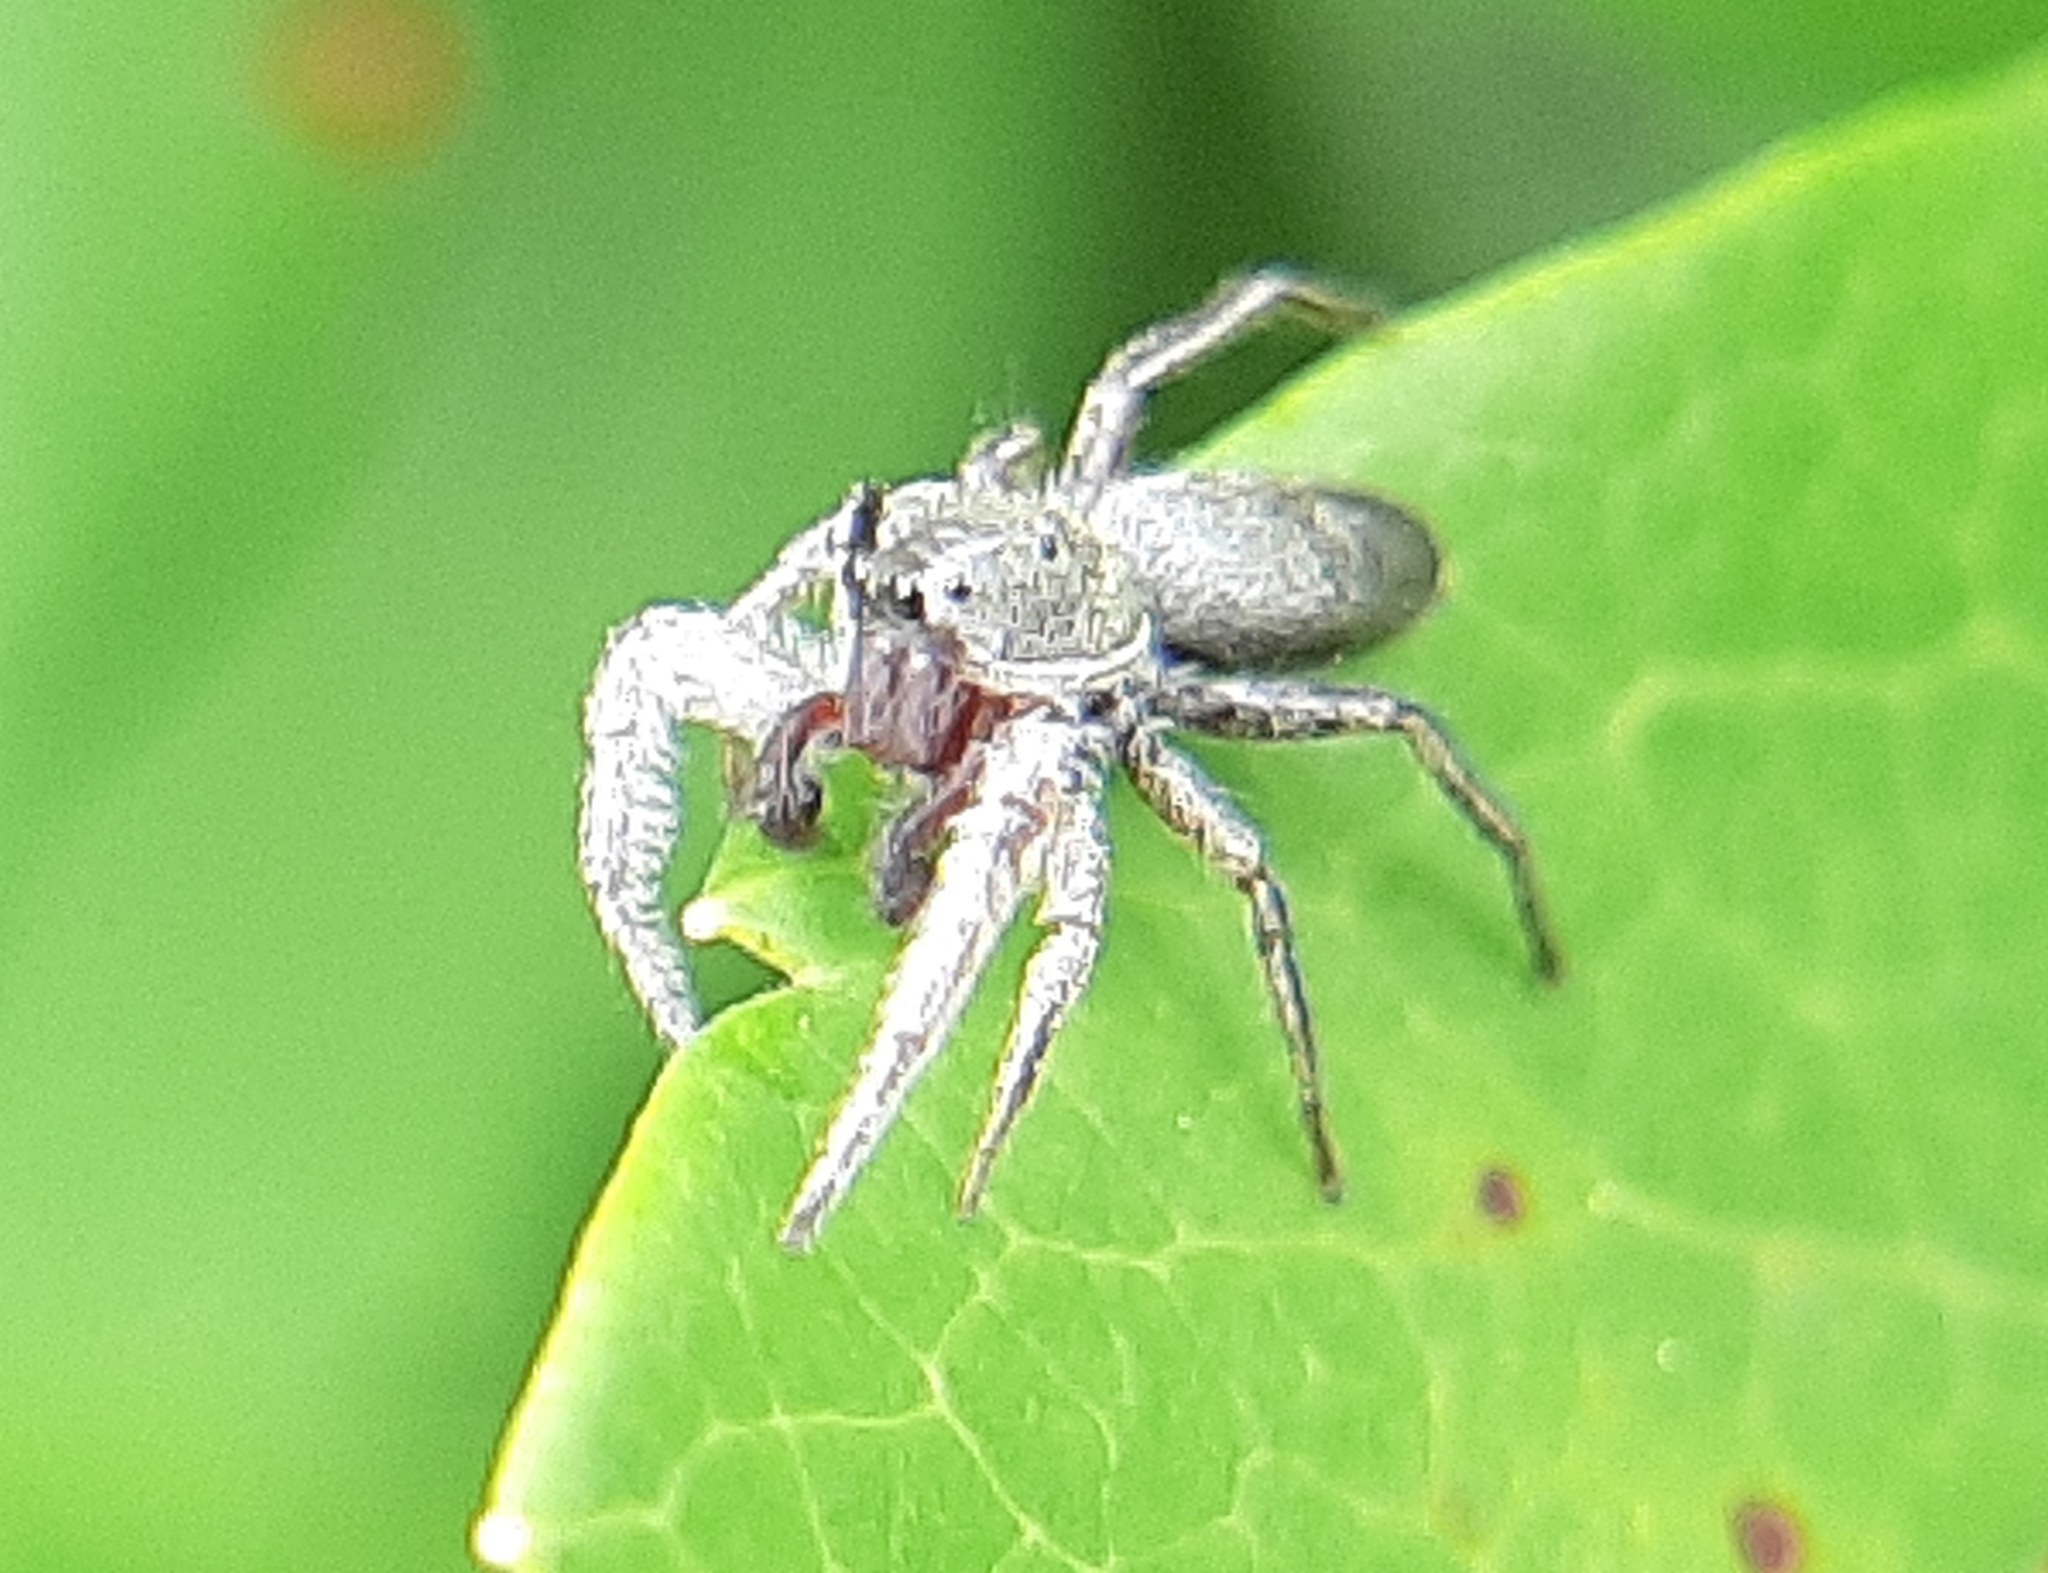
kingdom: Animalia
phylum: Arthropoda
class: Arachnida
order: Araneae
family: Salticidae
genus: Tutelina
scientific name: Tutelina similis
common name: Thick-spined jumping spider
